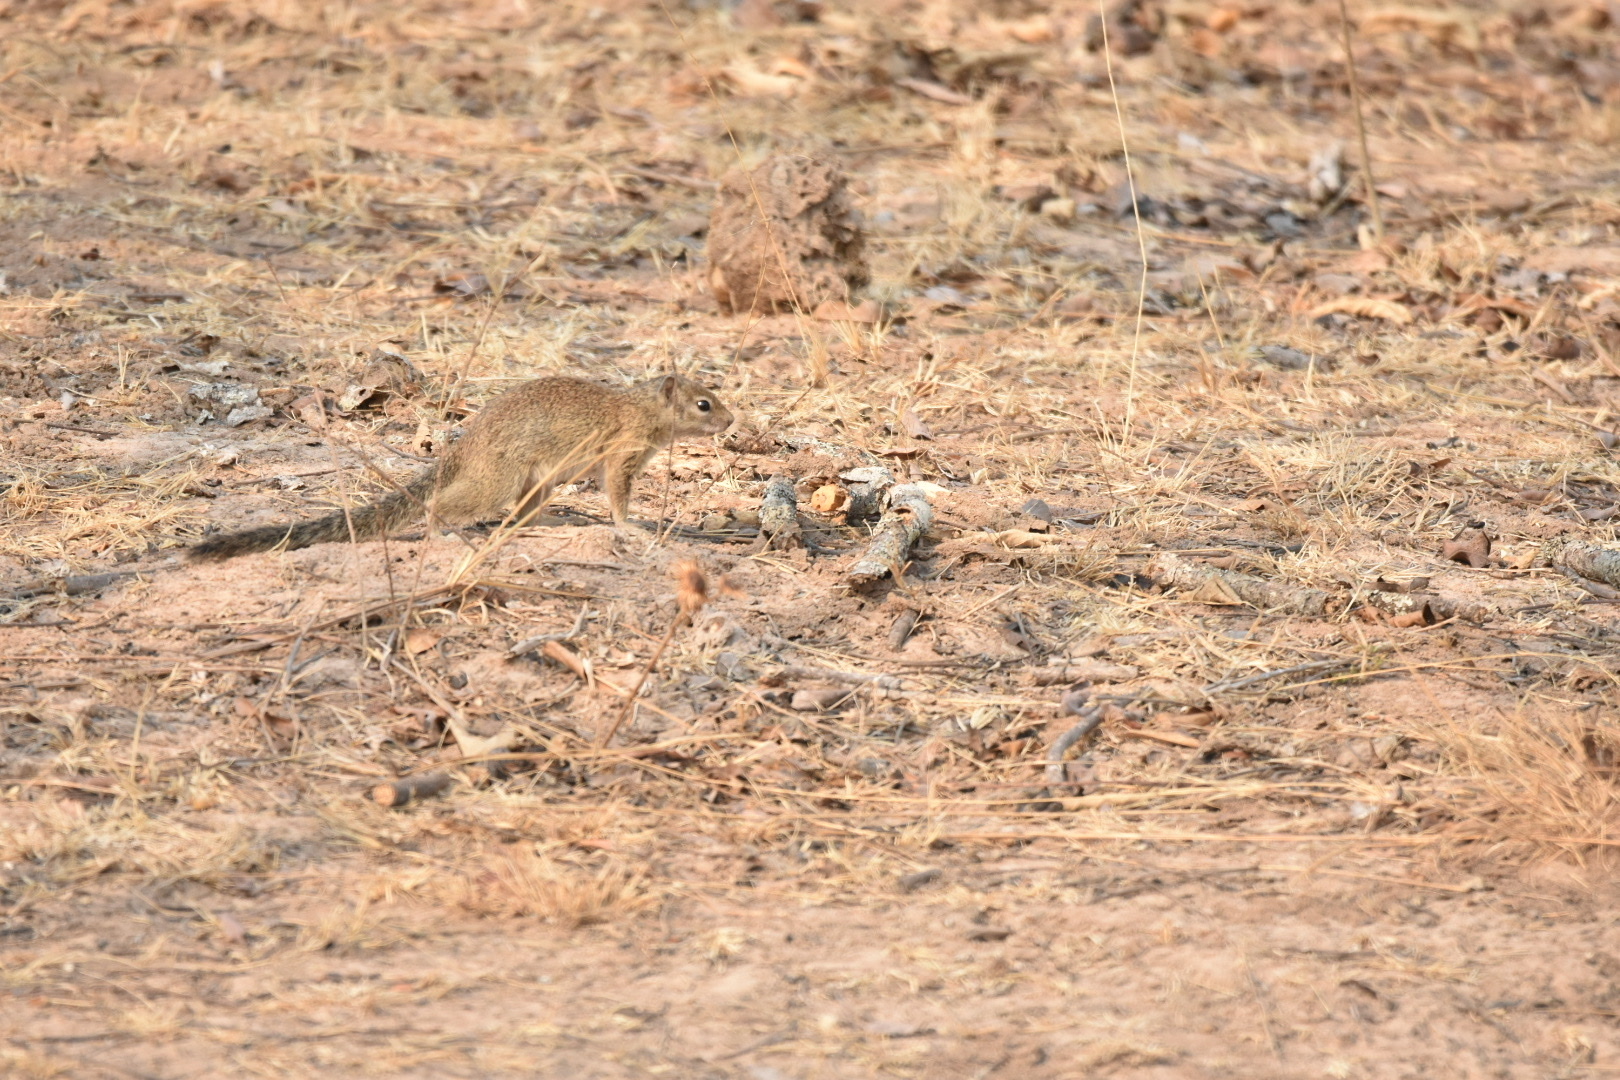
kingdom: Animalia
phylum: Chordata
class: Mammalia
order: Rodentia
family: Sciuridae
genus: Paraxerus
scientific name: Paraxerus cepapi
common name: Smith's bush squirrel
